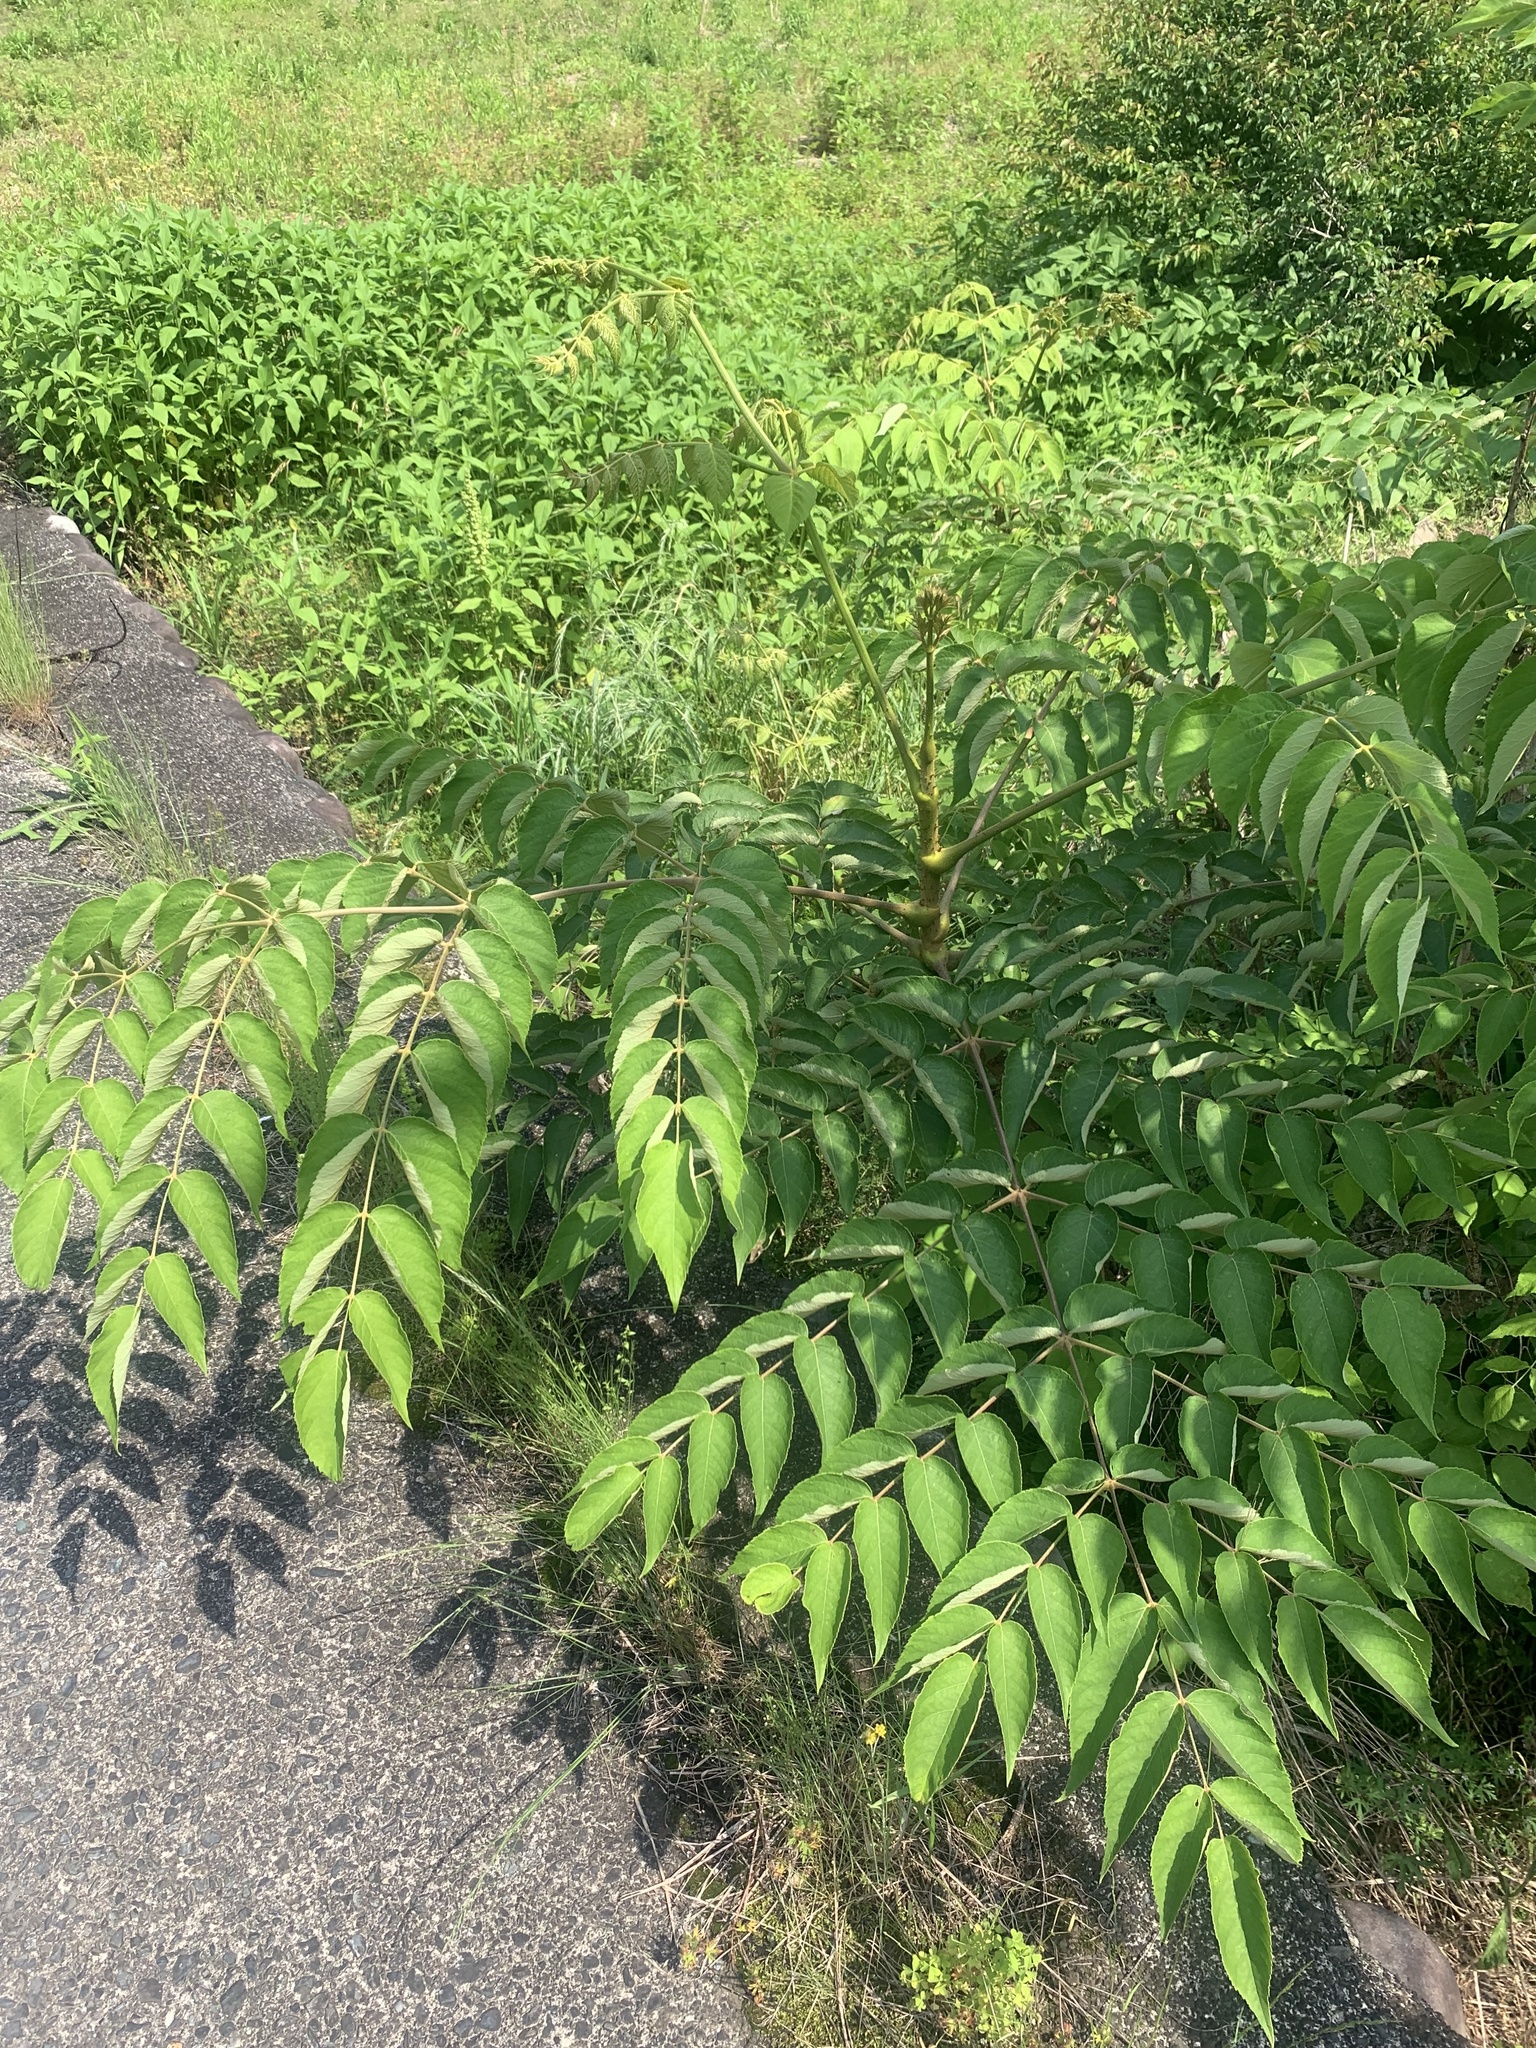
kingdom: Plantae
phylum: Tracheophyta
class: Magnoliopsida
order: Apiales
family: Araliaceae
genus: Aralia
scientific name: Aralia elata
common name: Japanese angelica-tree
